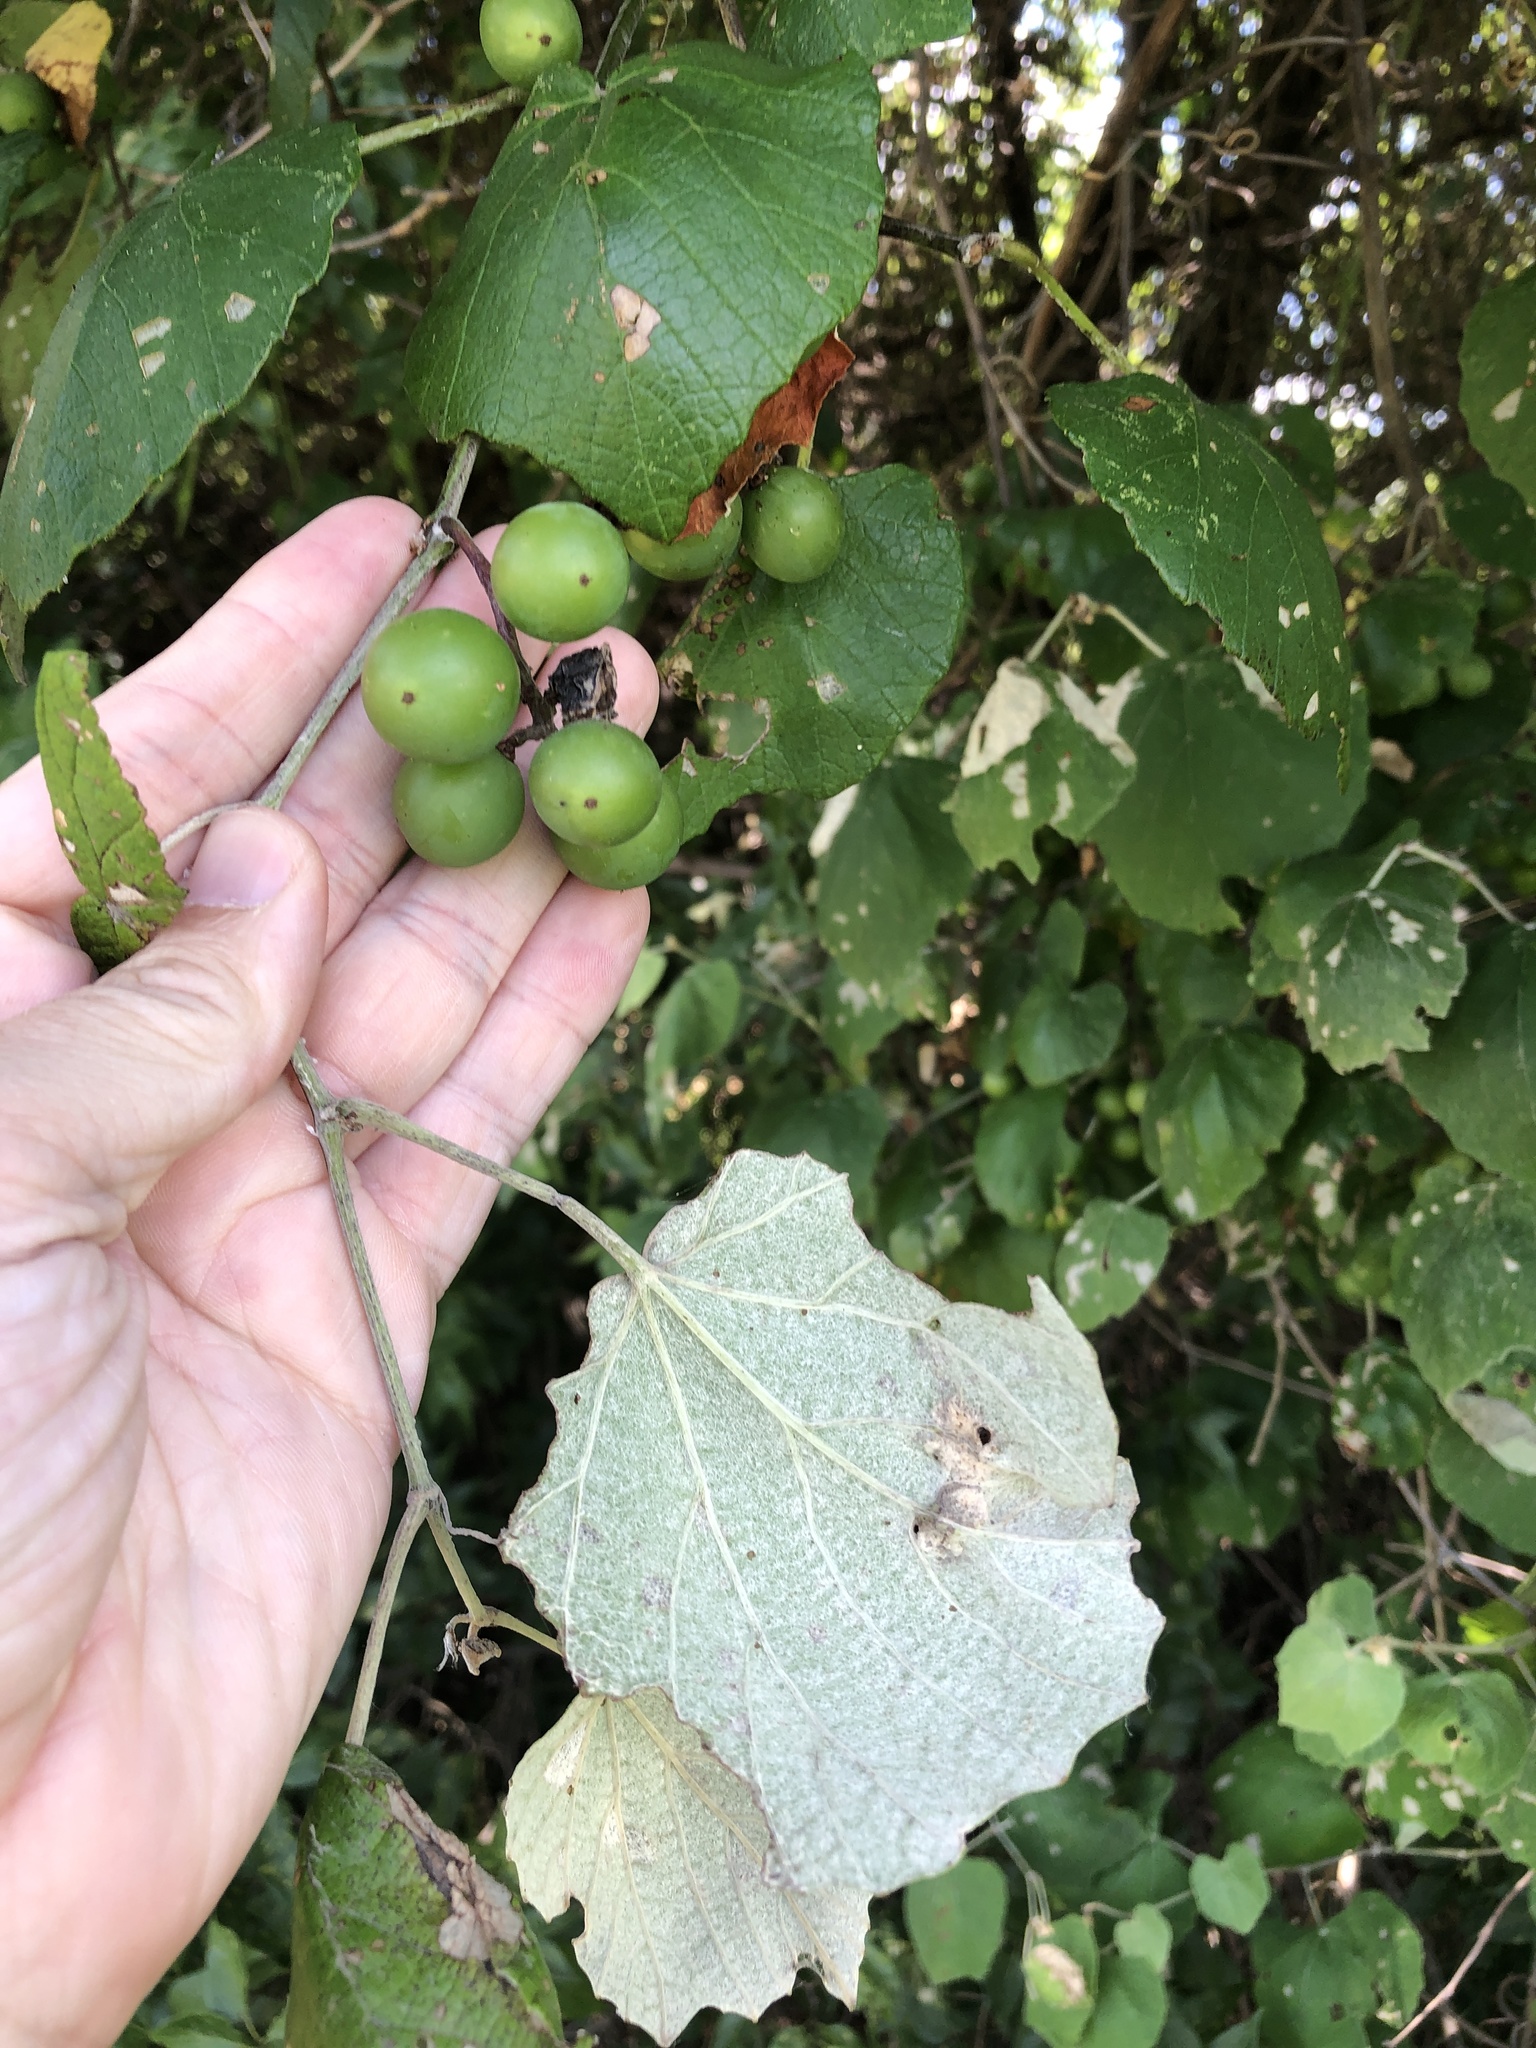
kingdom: Plantae
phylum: Tracheophyta
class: Magnoliopsida
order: Vitales
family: Vitaceae
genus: Vitis
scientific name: Vitis mustangensis
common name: Mustang grape
